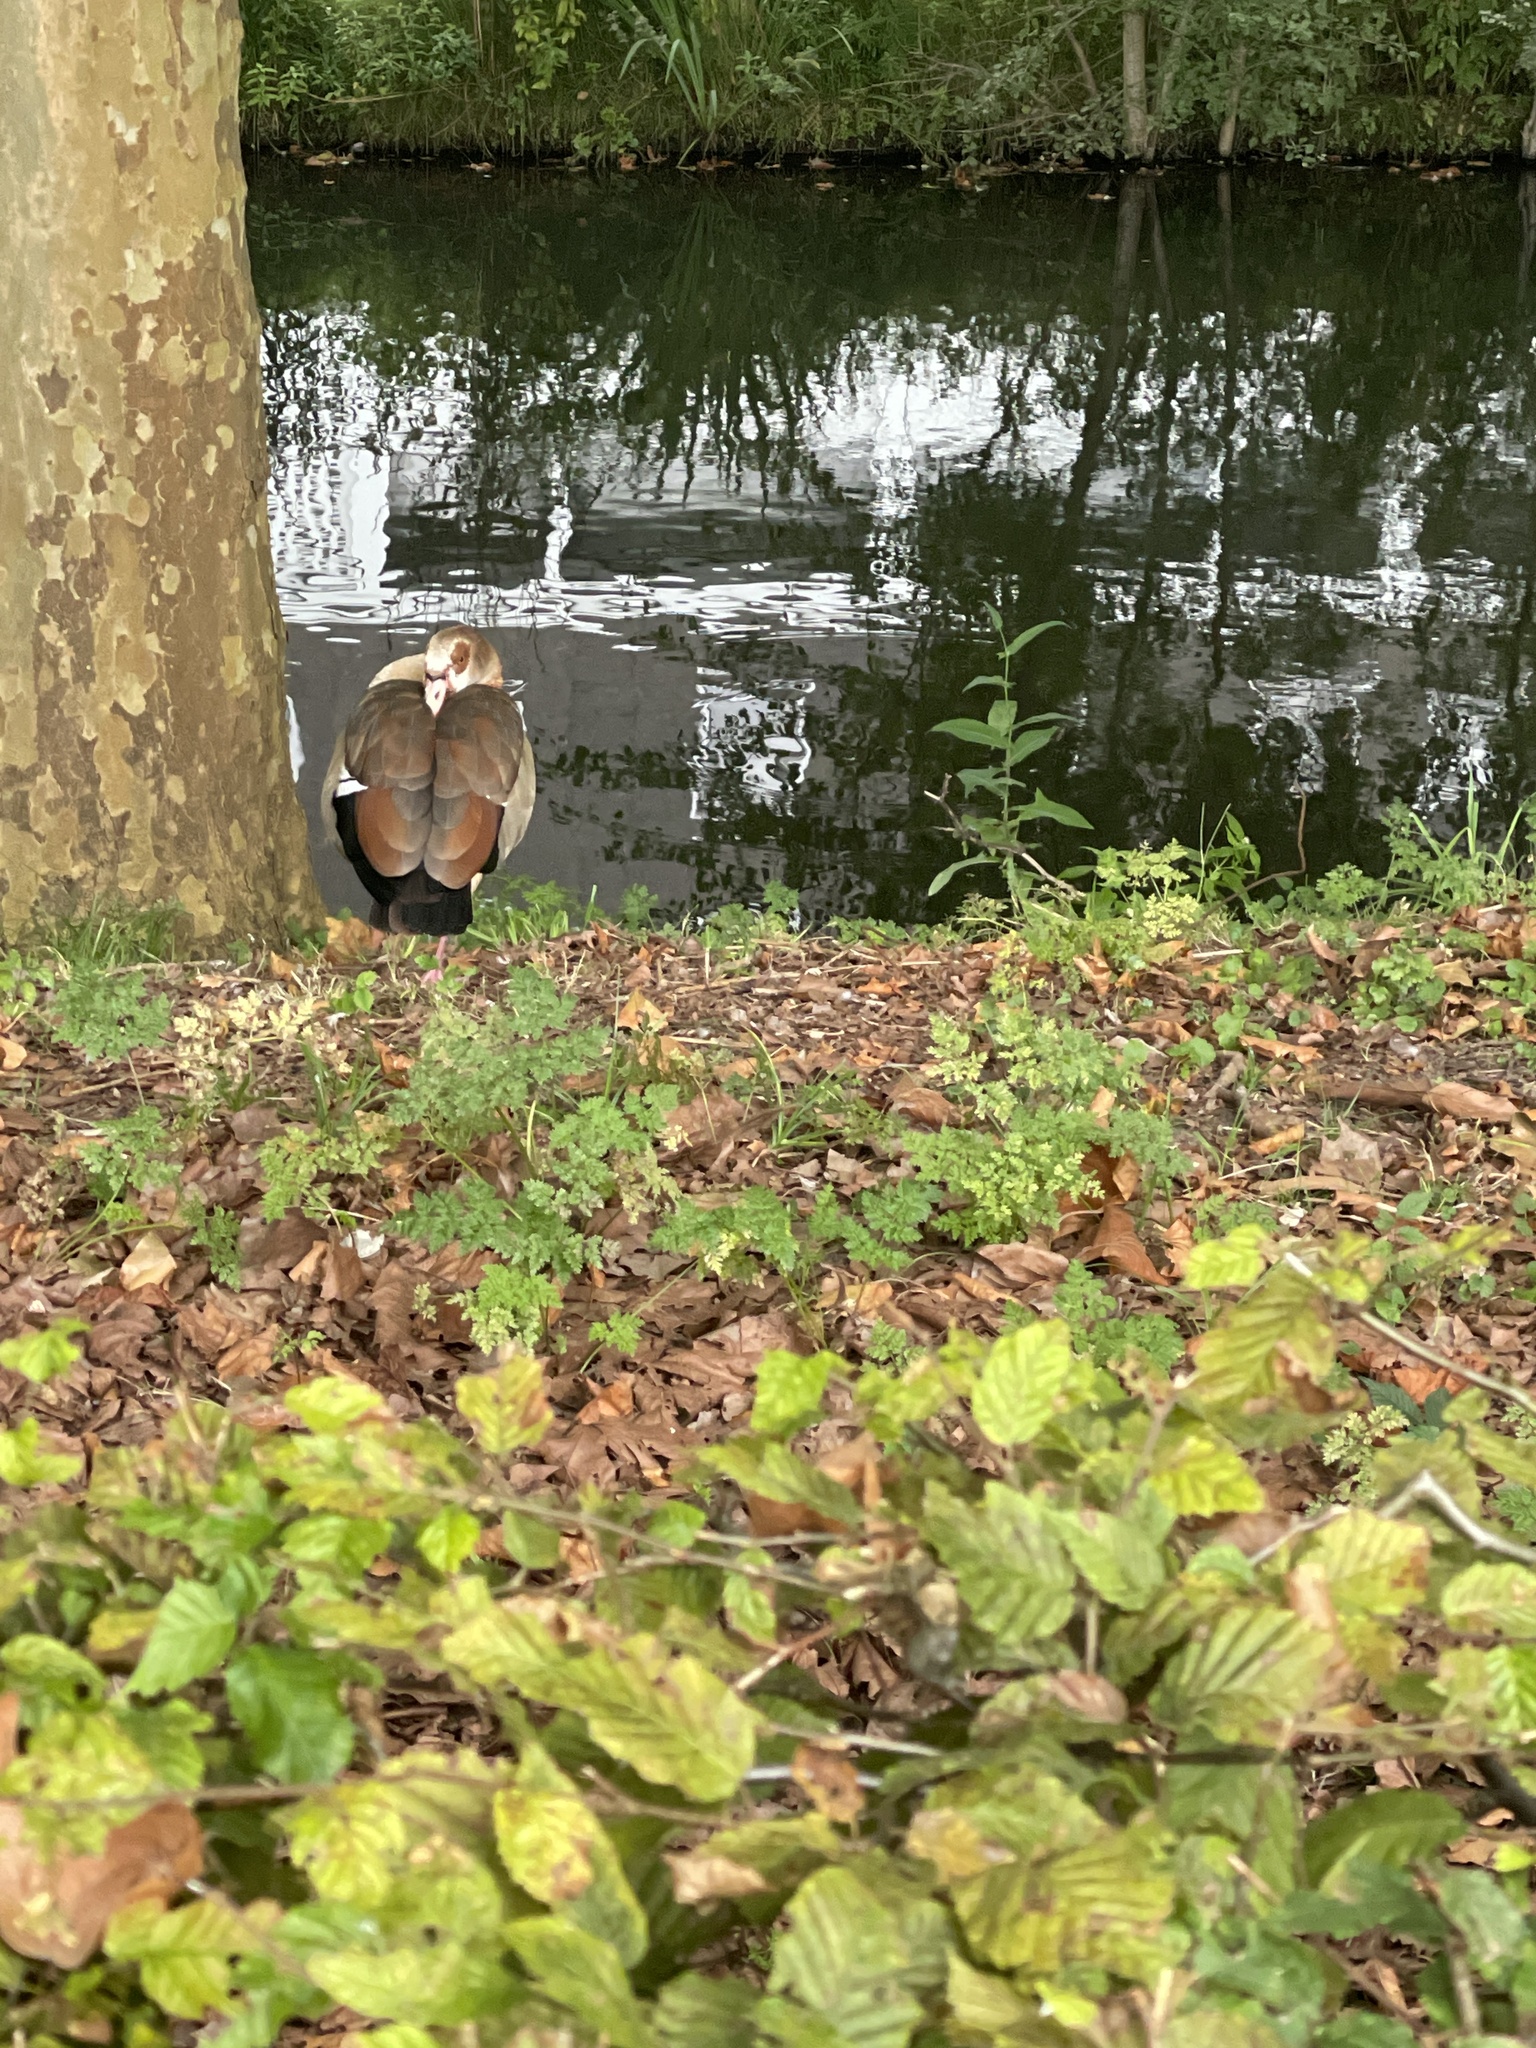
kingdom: Animalia
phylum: Chordata
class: Aves
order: Anseriformes
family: Anatidae
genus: Alopochen
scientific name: Alopochen aegyptiaca
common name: Egyptian goose
